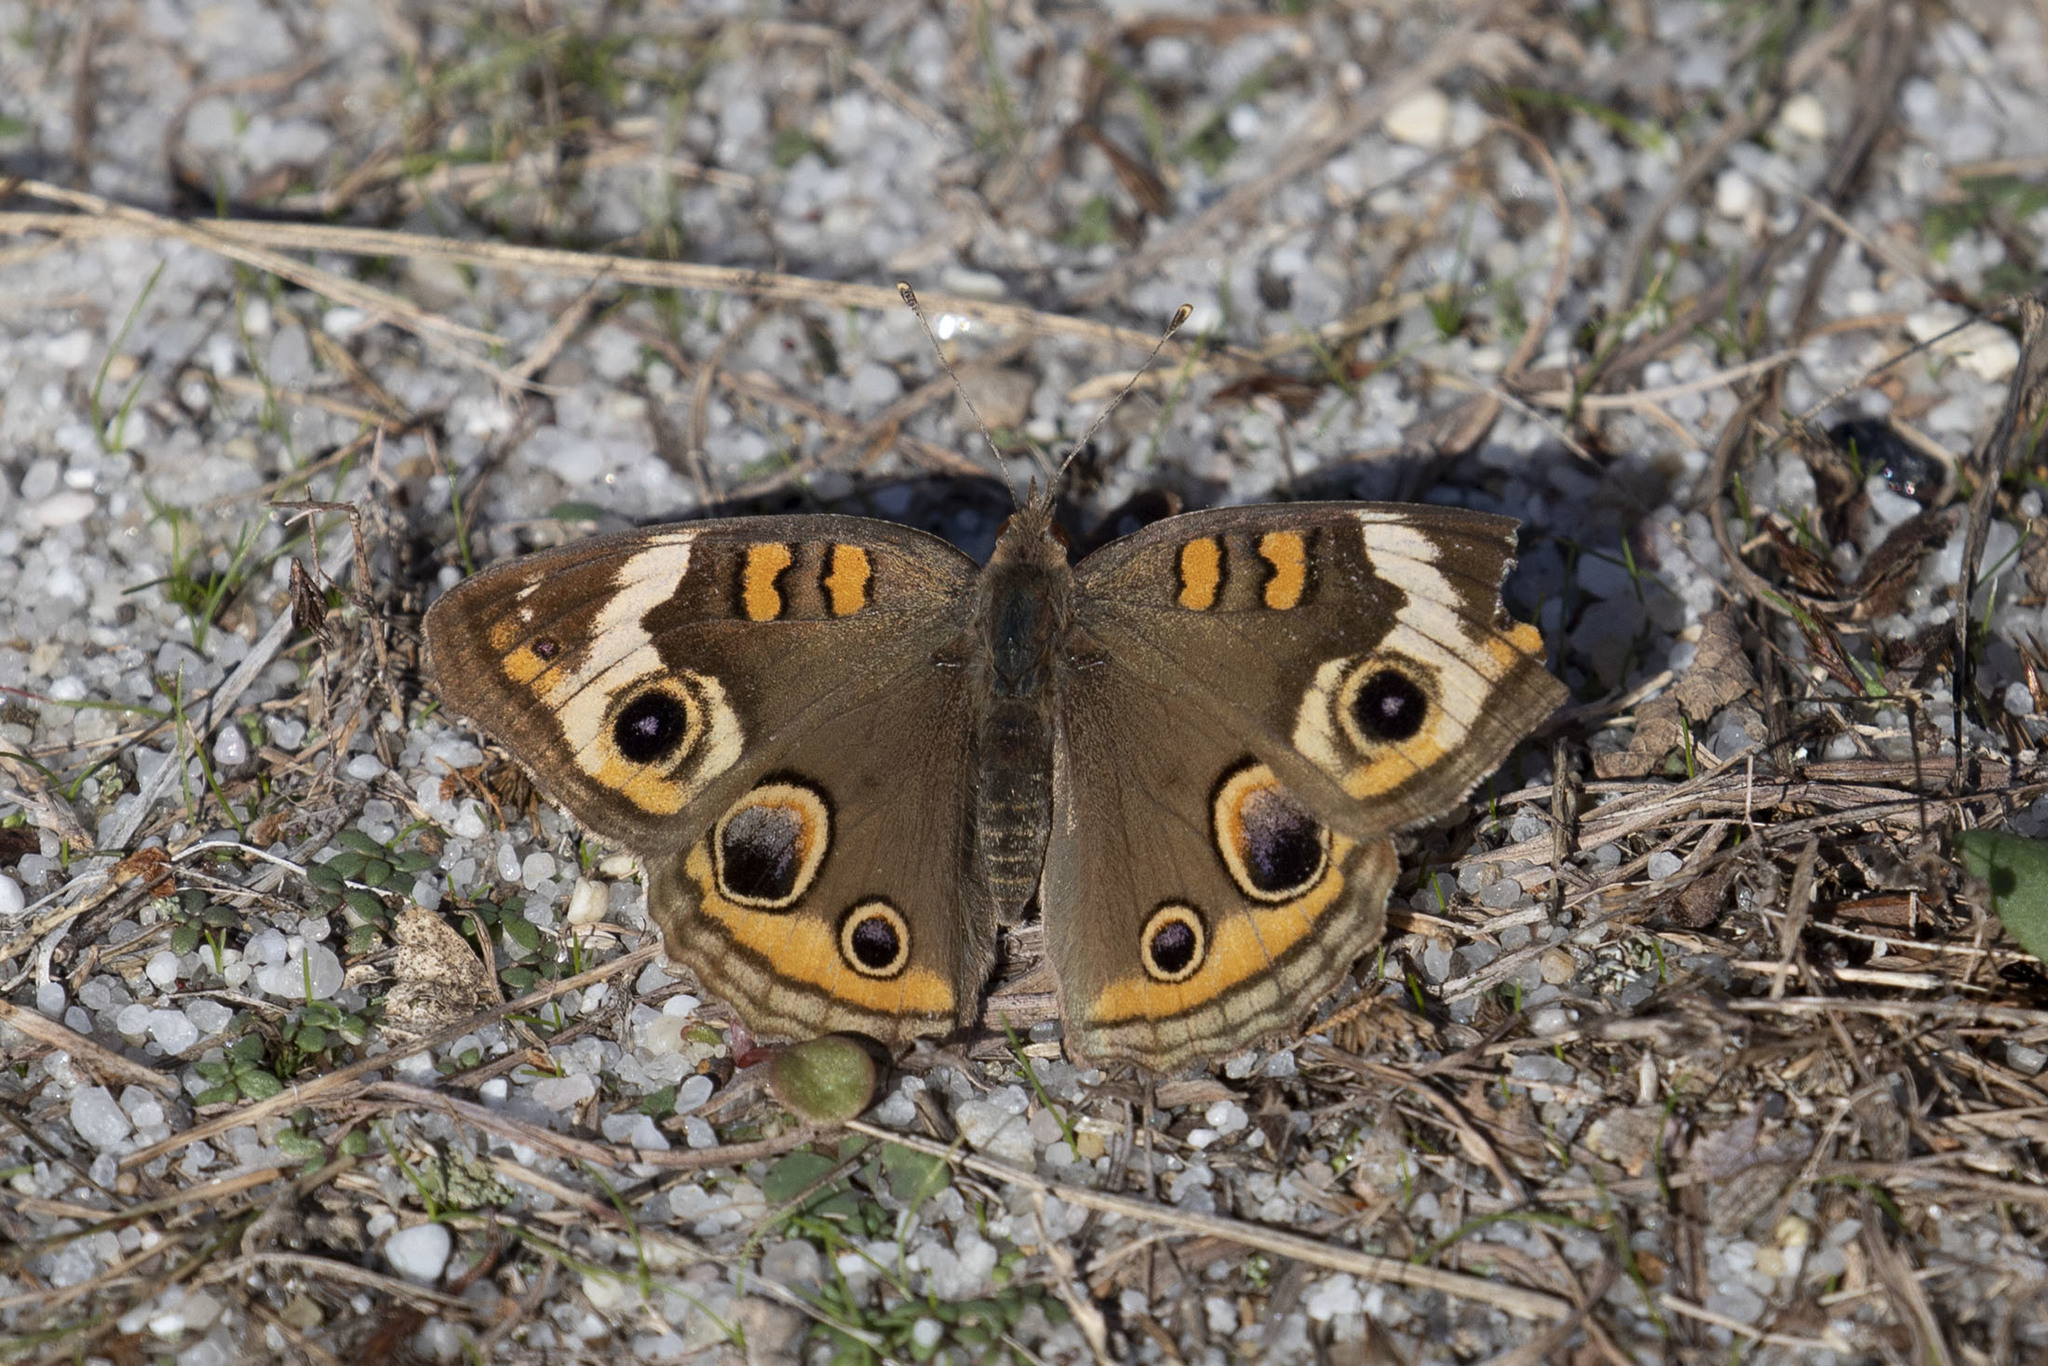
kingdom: Animalia
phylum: Arthropoda
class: Insecta
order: Lepidoptera
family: Nymphalidae
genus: Junonia
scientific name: Junonia coenia
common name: Common buckeye
